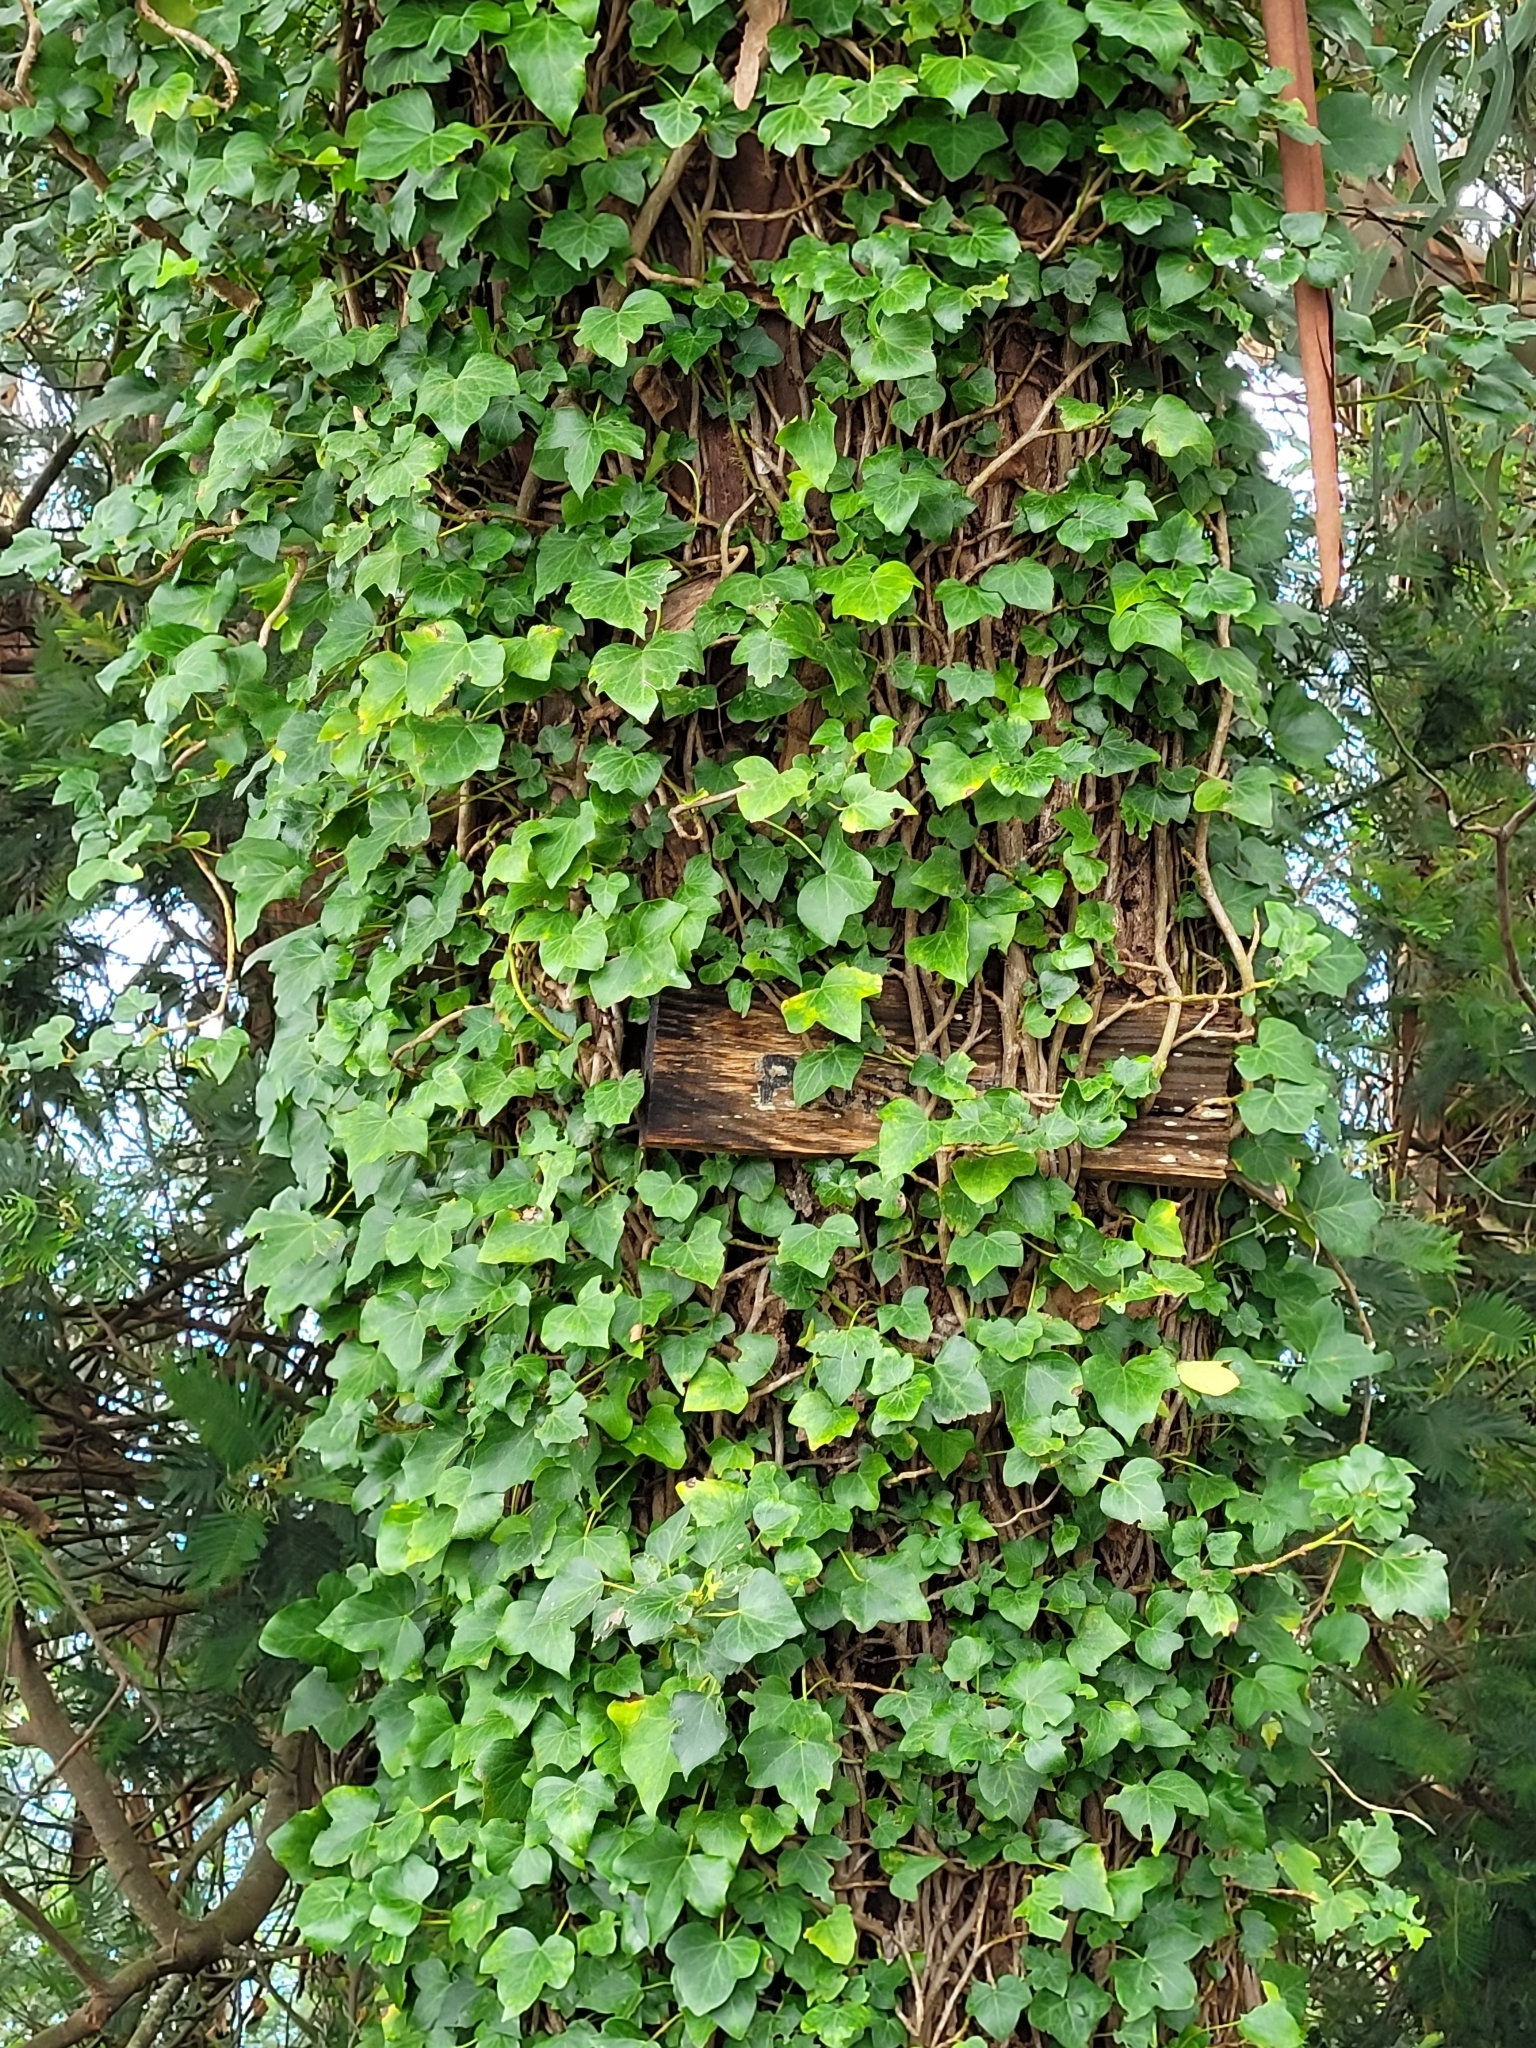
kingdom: Plantae
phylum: Tracheophyta
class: Magnoliopsida
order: Apiales
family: Araliaceae
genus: Hedera
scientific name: Hedera maderensis
